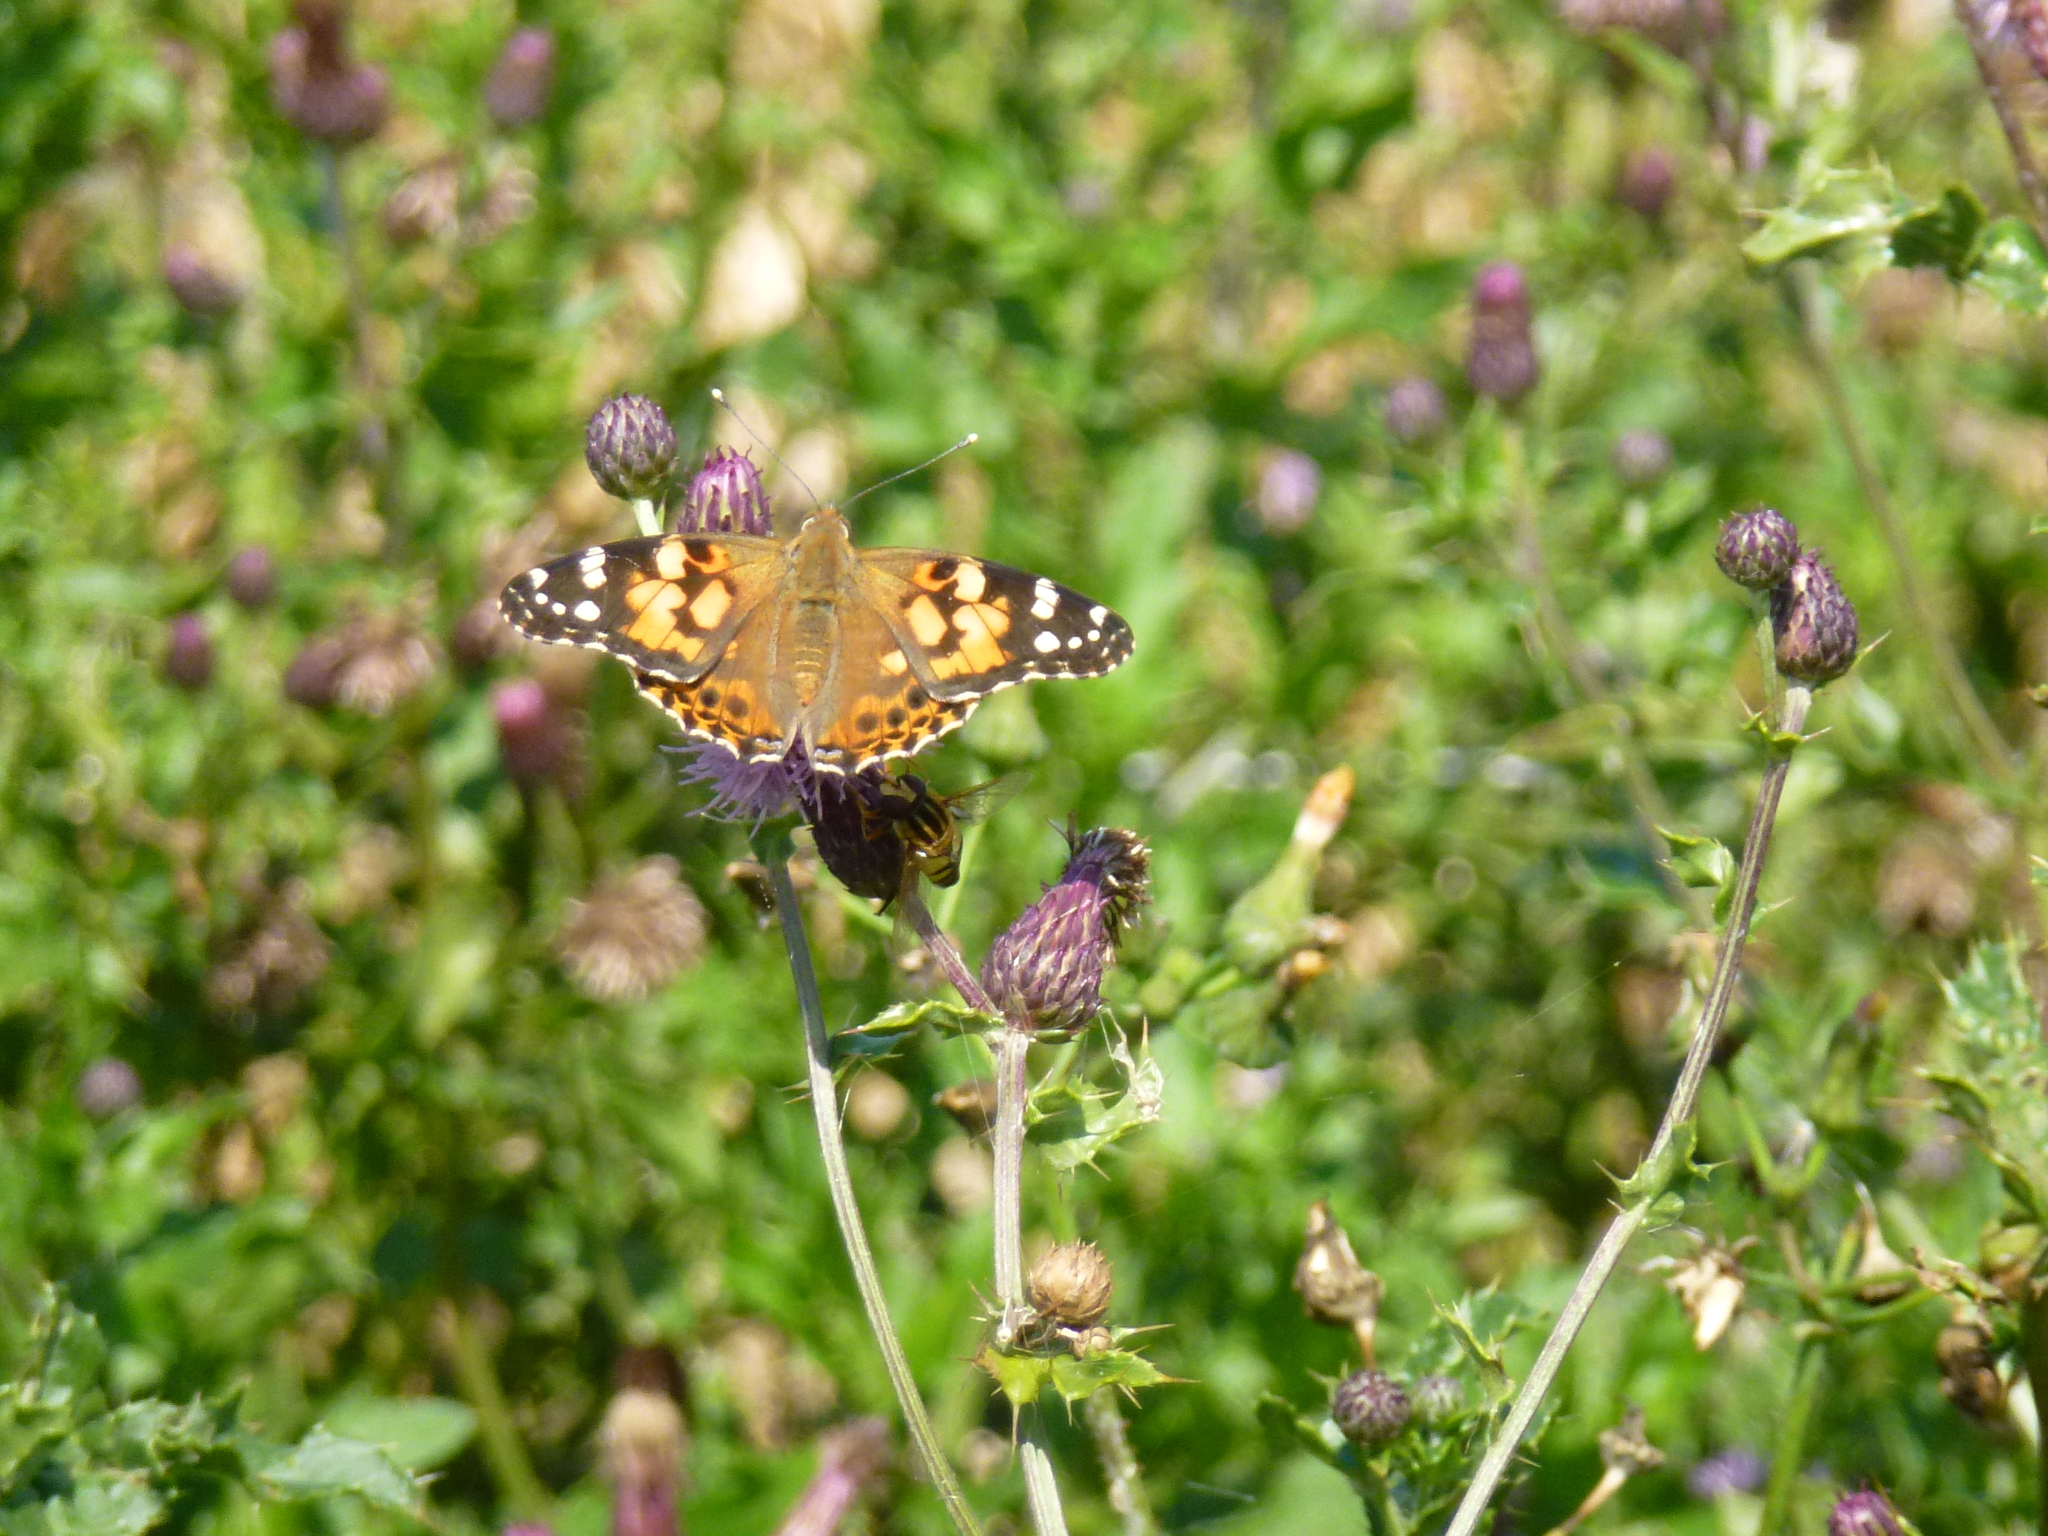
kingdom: Animalia
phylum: Arthropoda
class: Insecta
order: Lepidoptera
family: Nymphalidae
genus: Vanessa
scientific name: Vanessa cardui
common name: Painted lady
